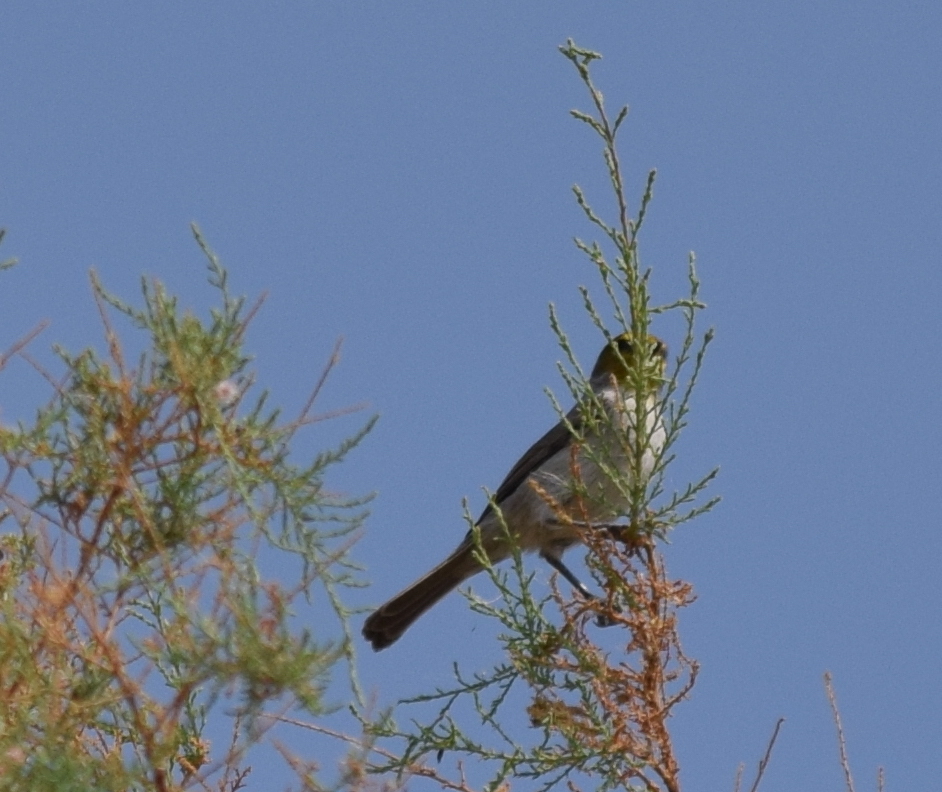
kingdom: Animalia
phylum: Chordata
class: Aves
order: Passeriformes
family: Remizidae
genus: Auriparus
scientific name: Auriparus flaviceps
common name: Verdin
